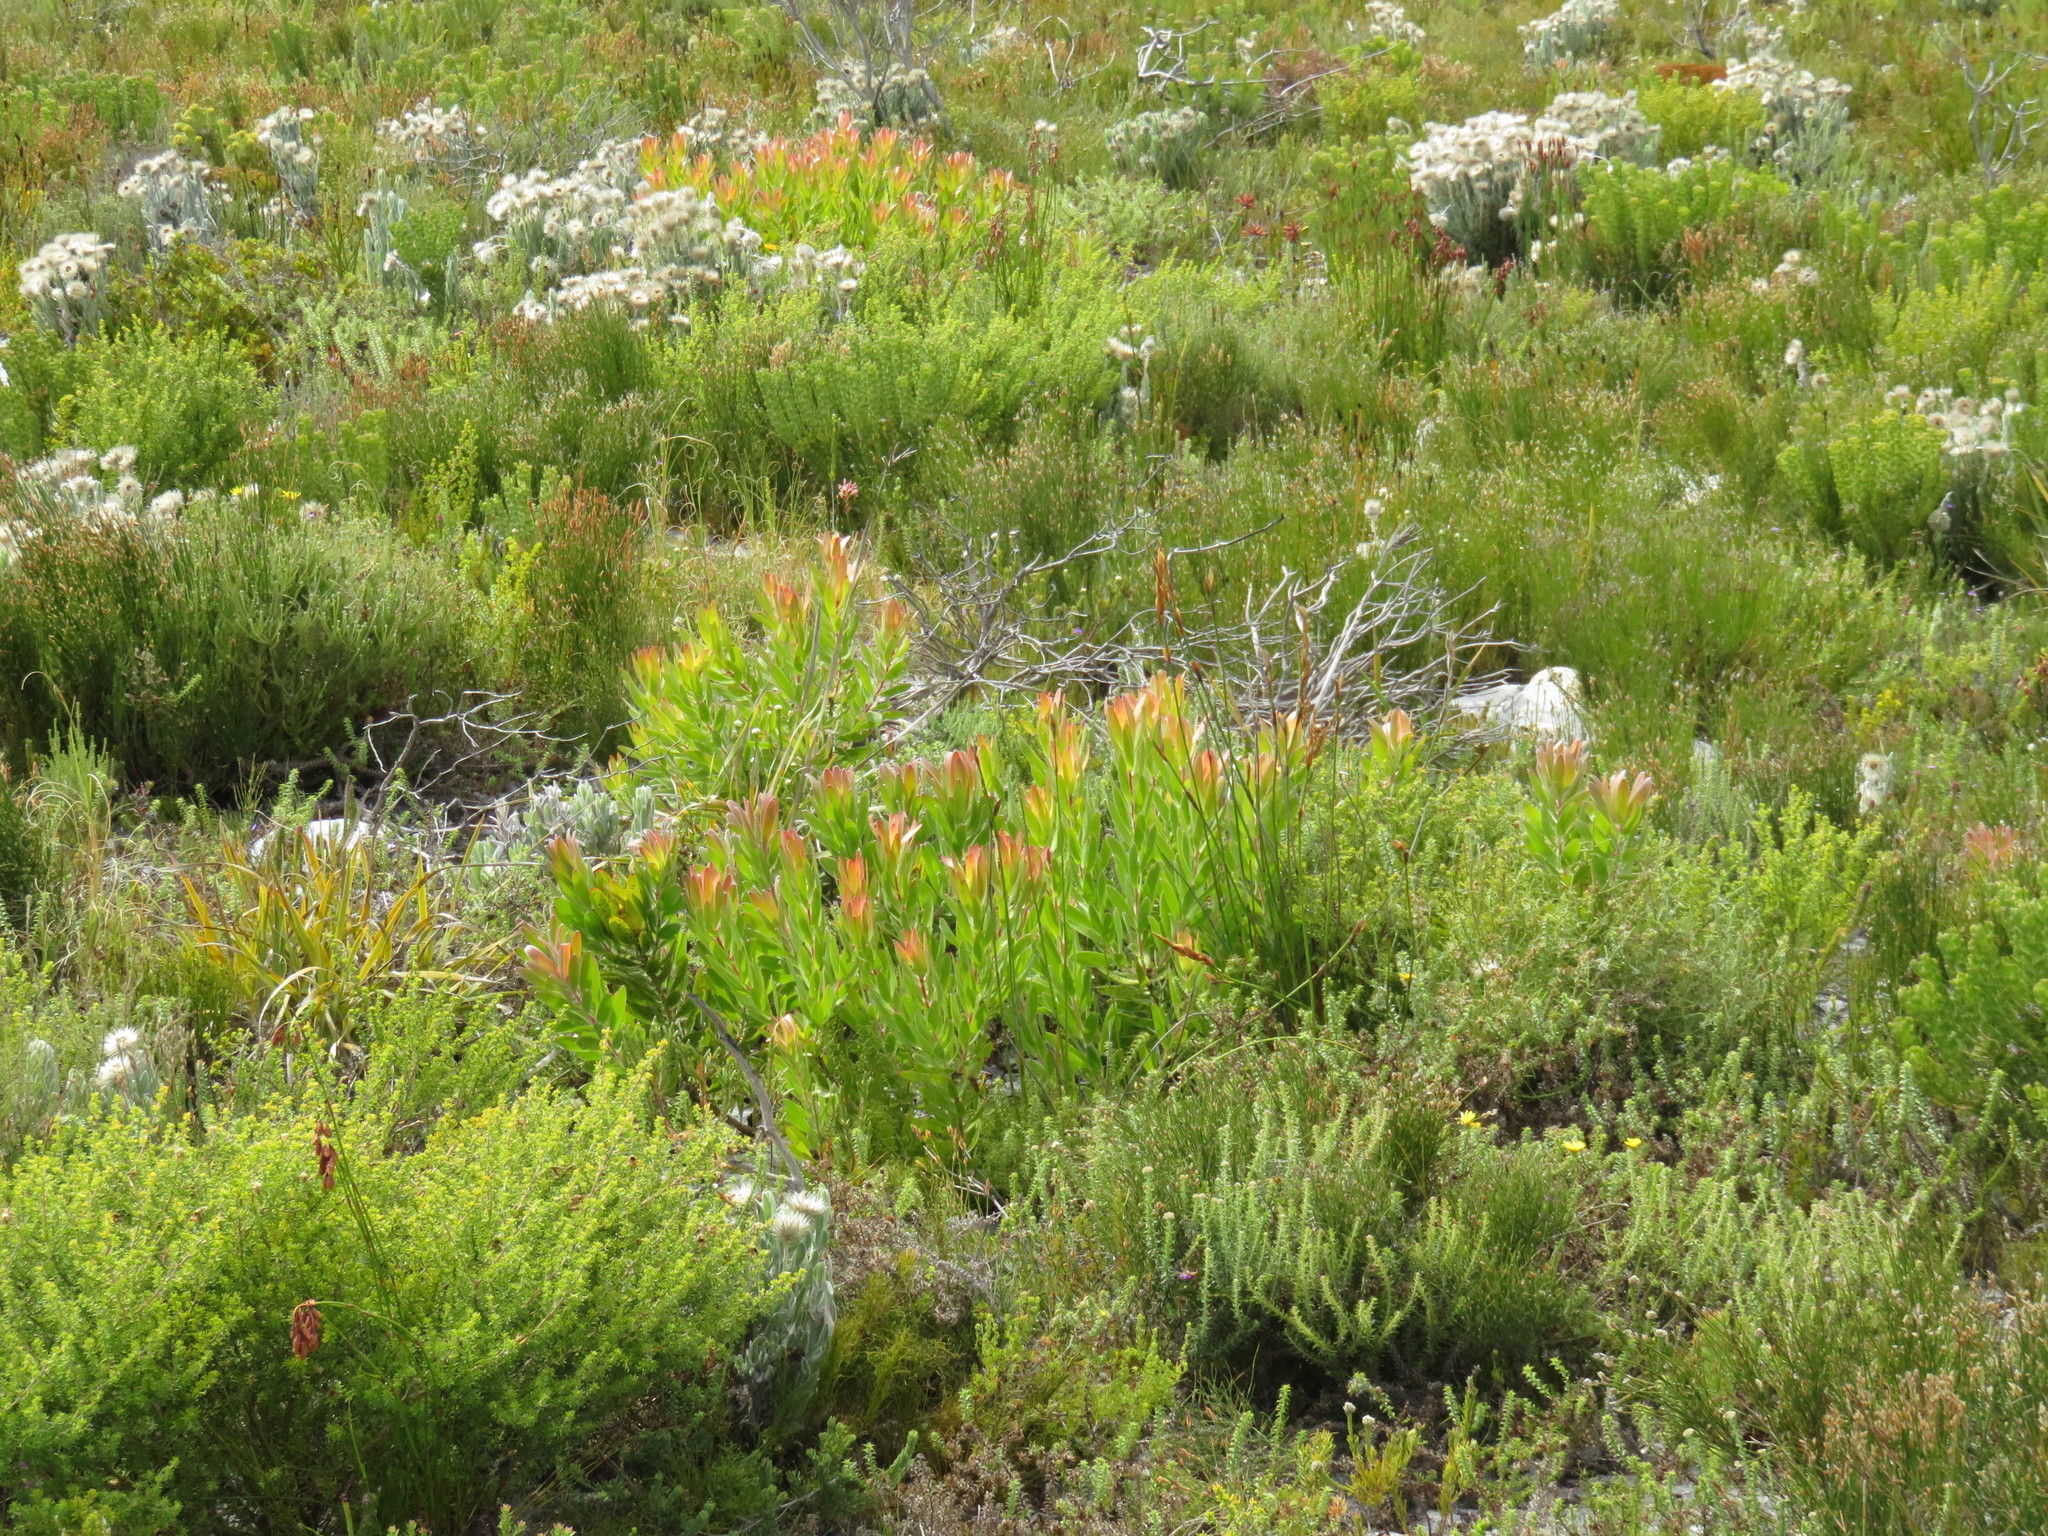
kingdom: Plantae
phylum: Tracheophyta
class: Magnoliopsida
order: Proteales
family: Proteaceae
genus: Leucadendron
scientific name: Leucadendron laureolum
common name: Golden sunshinebush
